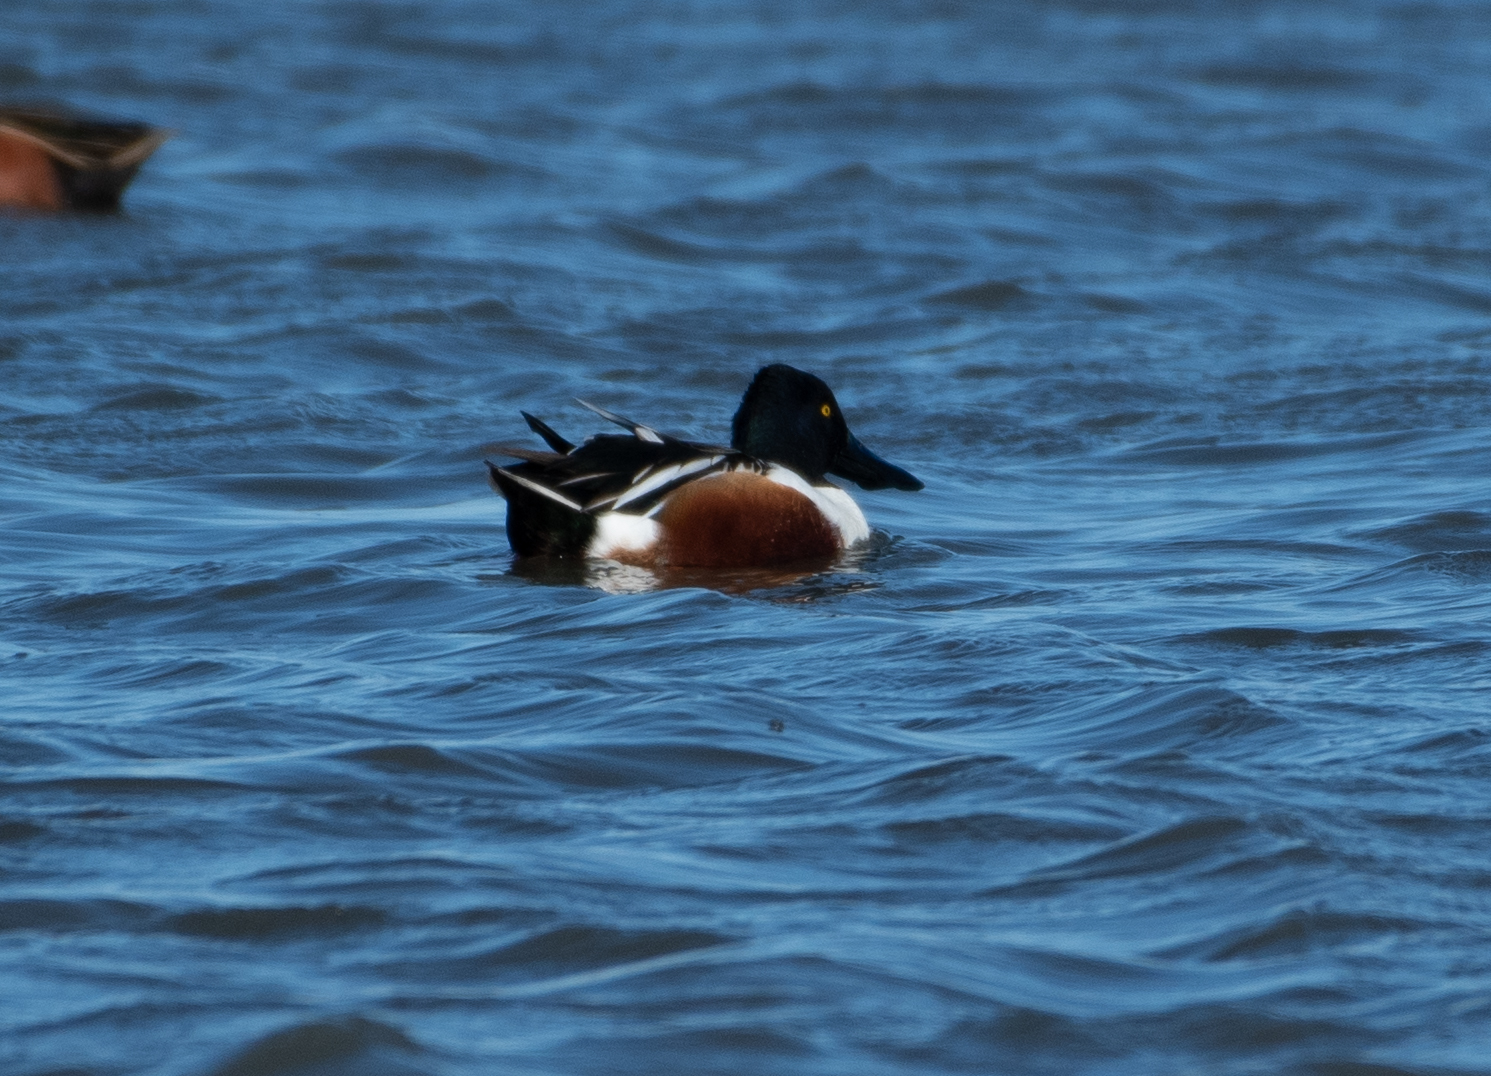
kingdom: Animalia
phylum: Chordata
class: Aves
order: Anseriformes
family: Anatidae
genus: Spatula
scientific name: Spatula clypeata
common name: Northern shoveler
